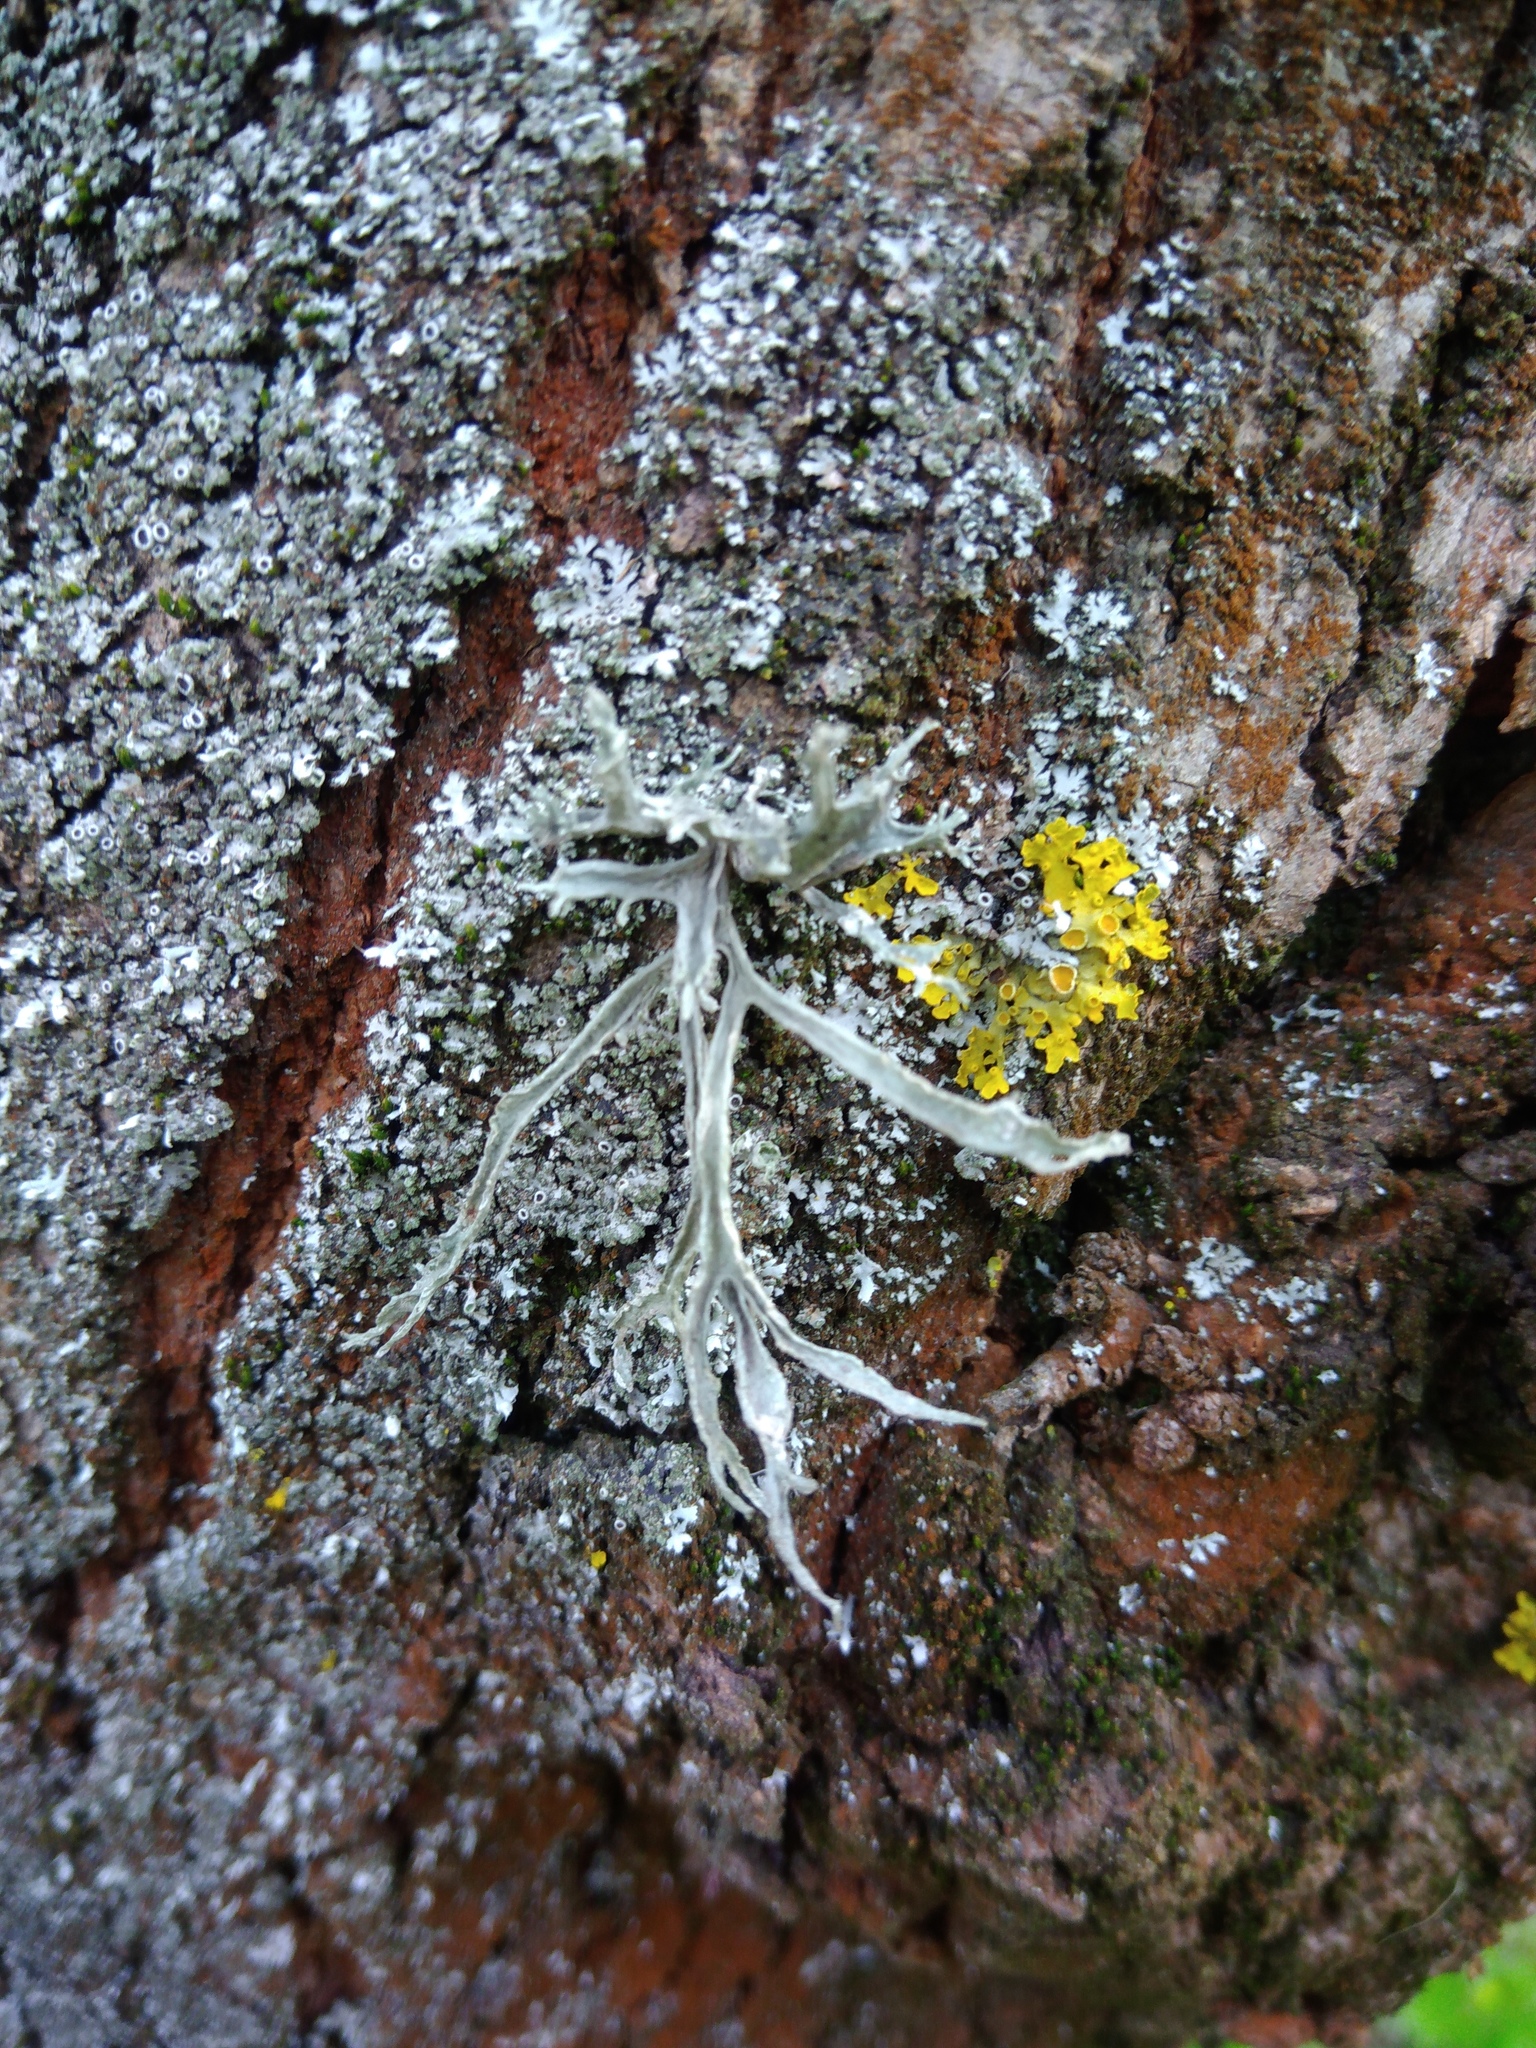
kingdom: Fungi
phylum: Ascomycota
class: Lecanoromycetes
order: Lecanorales
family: Ramalinaceae
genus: Ramalina
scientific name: Ramalina fraxinea
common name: Cartilage lichen
